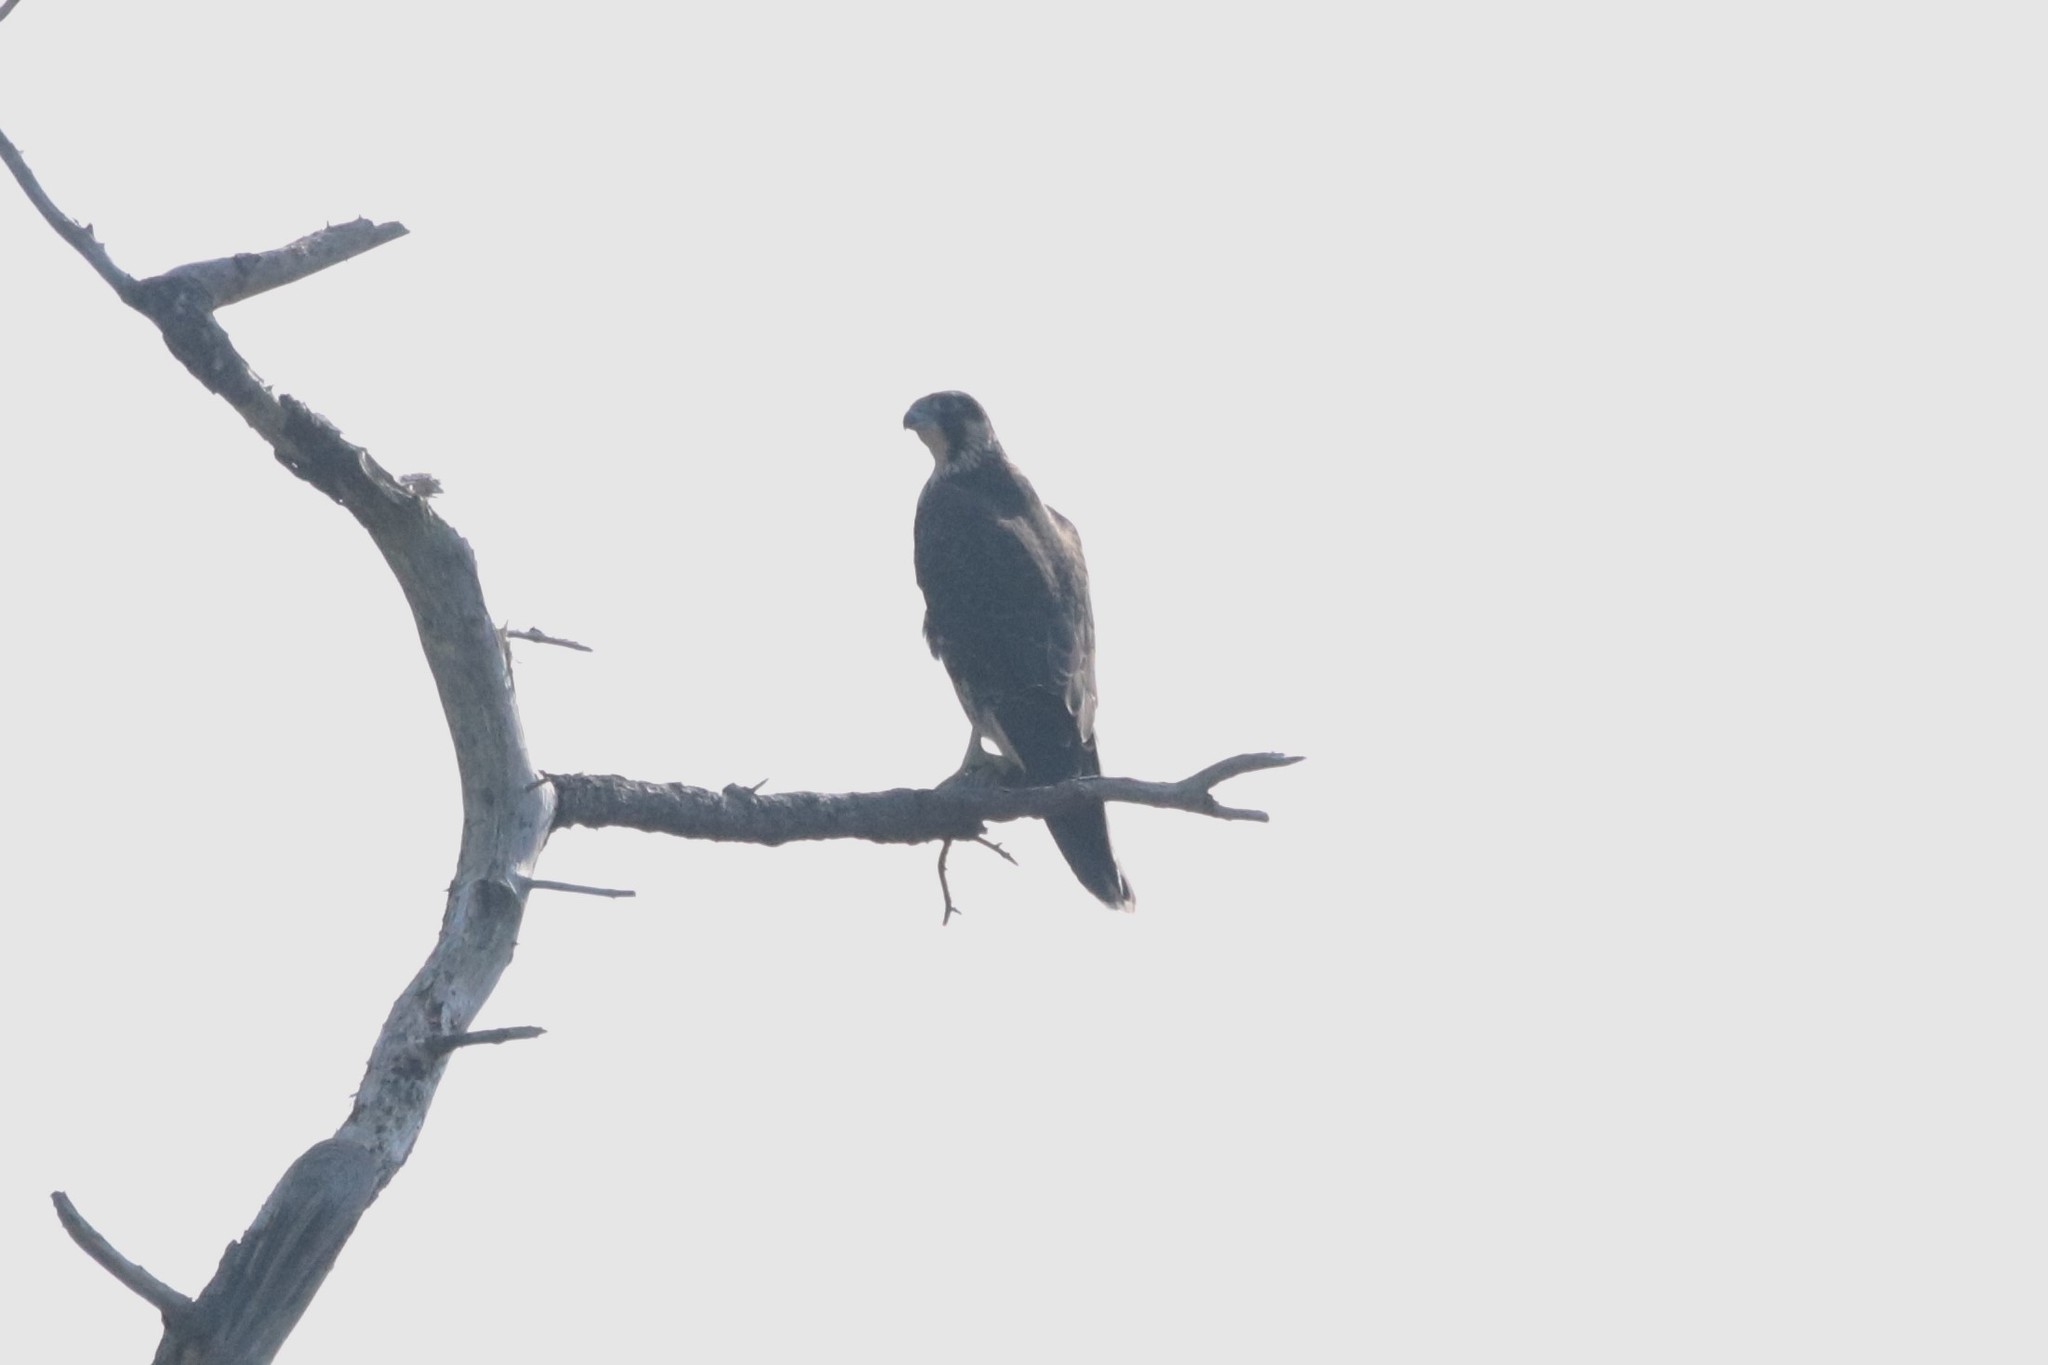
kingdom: Animalia
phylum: Chordata
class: Aves
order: Falconiformes
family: Falconidae
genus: Falco
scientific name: Falco peregrinus
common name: Peregrine falcon
